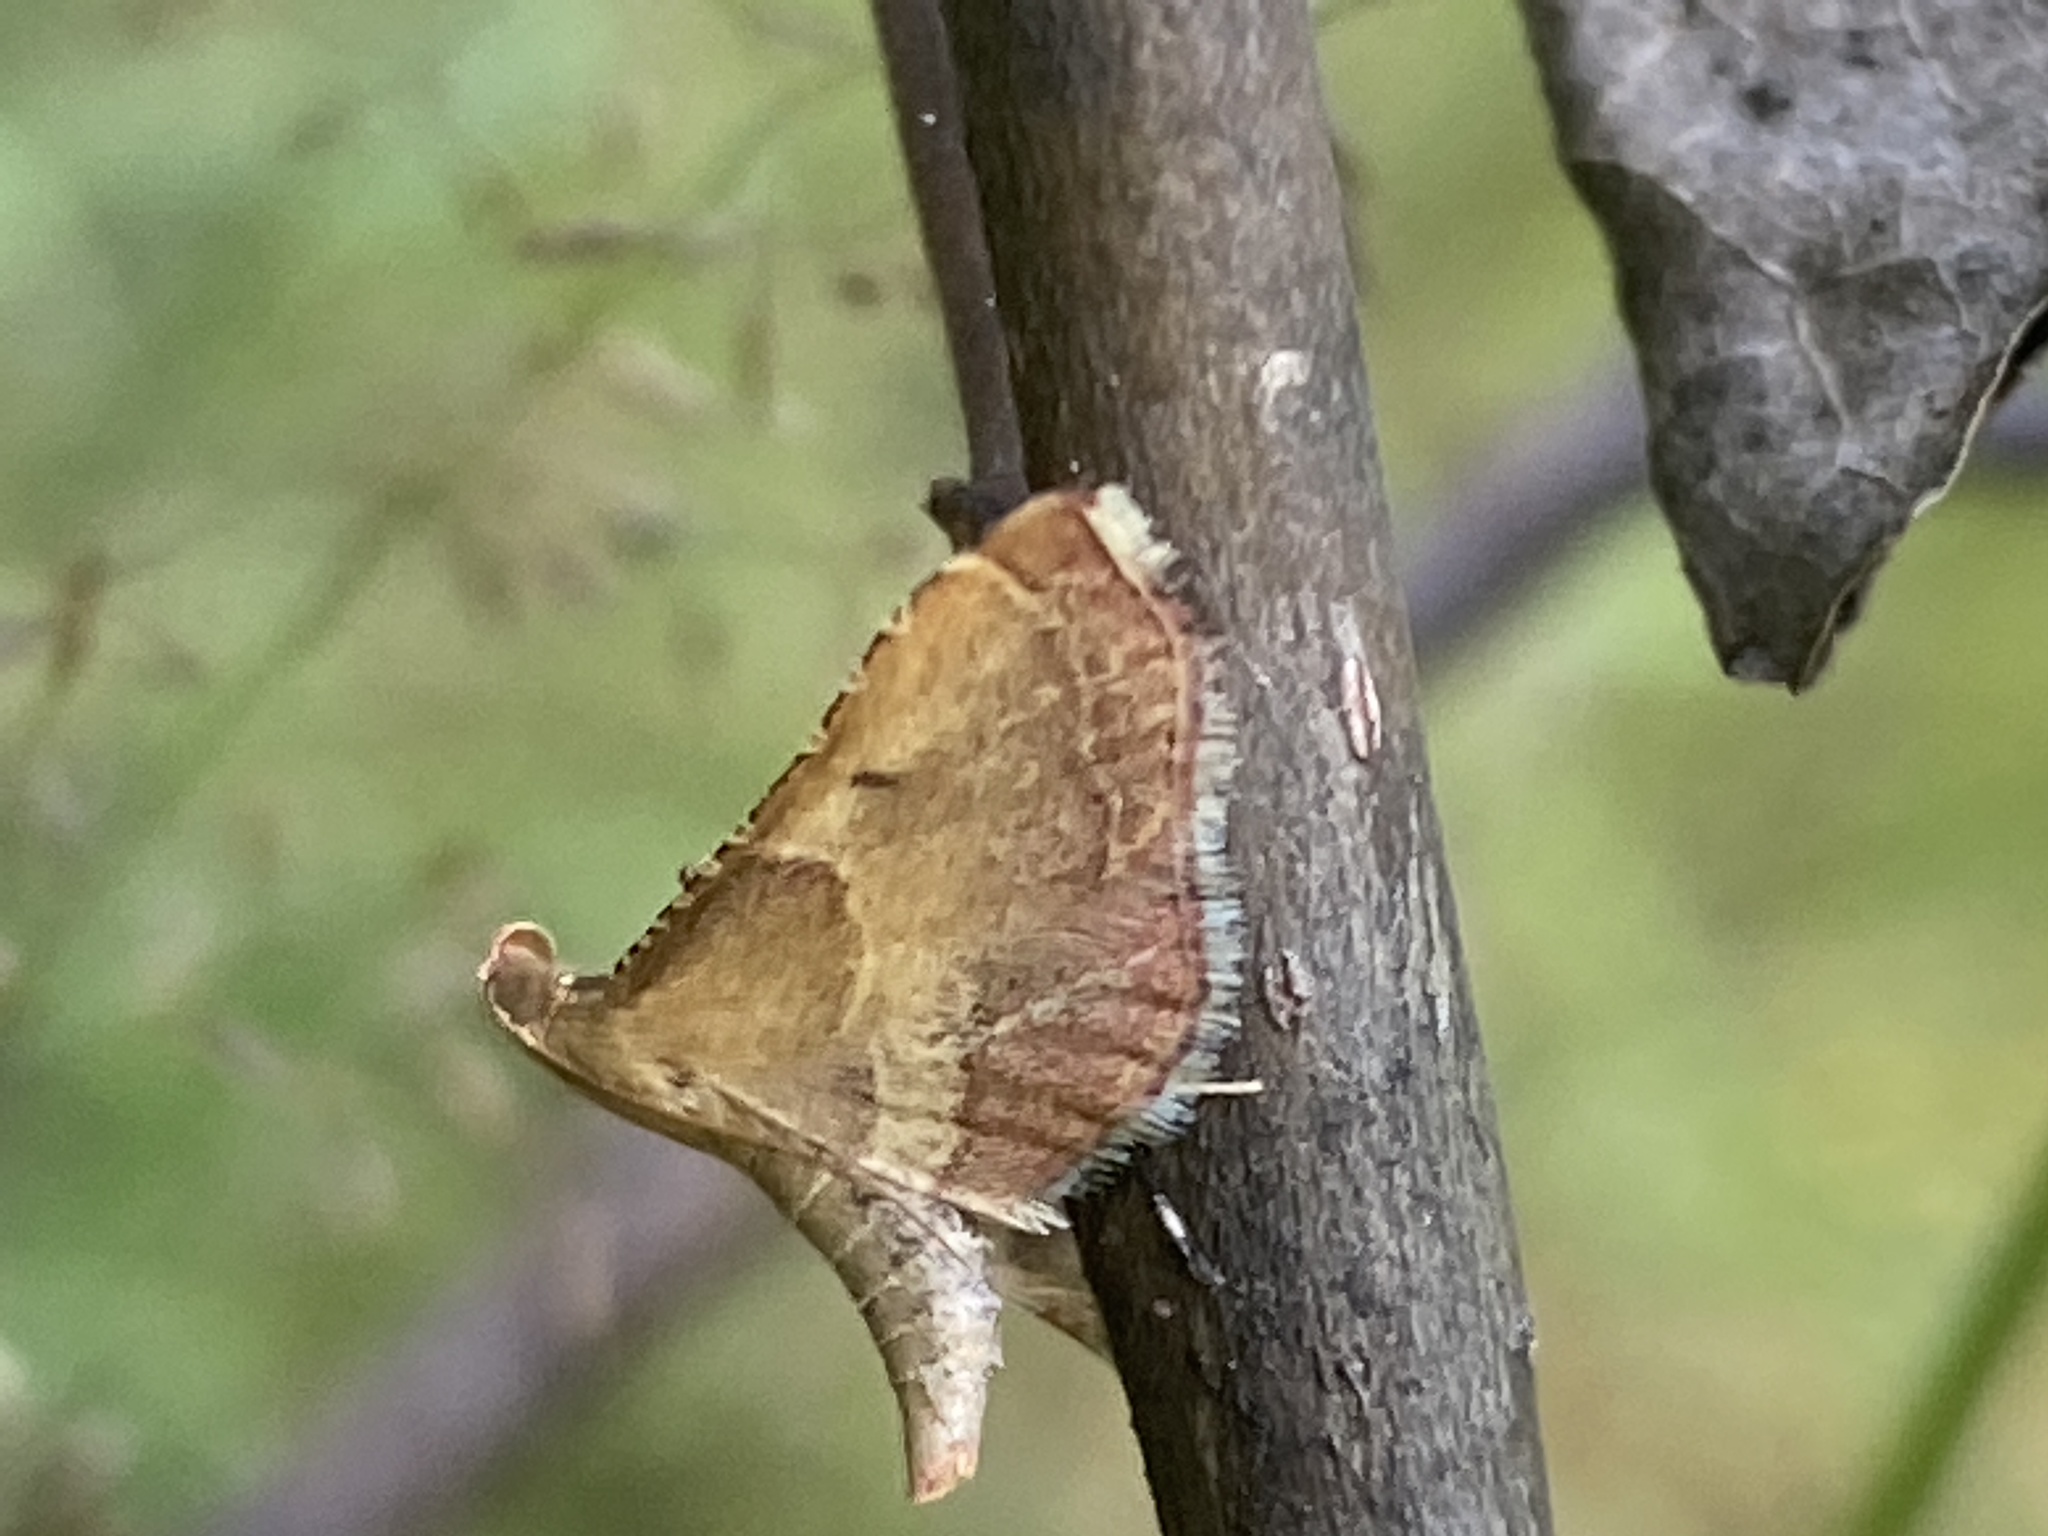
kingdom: Animalia
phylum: Arthropoda
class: Insecta
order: Lepidoptera
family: Pyralidae
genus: Endotricha
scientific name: Endotricha flammealis
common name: Rosy tabby
